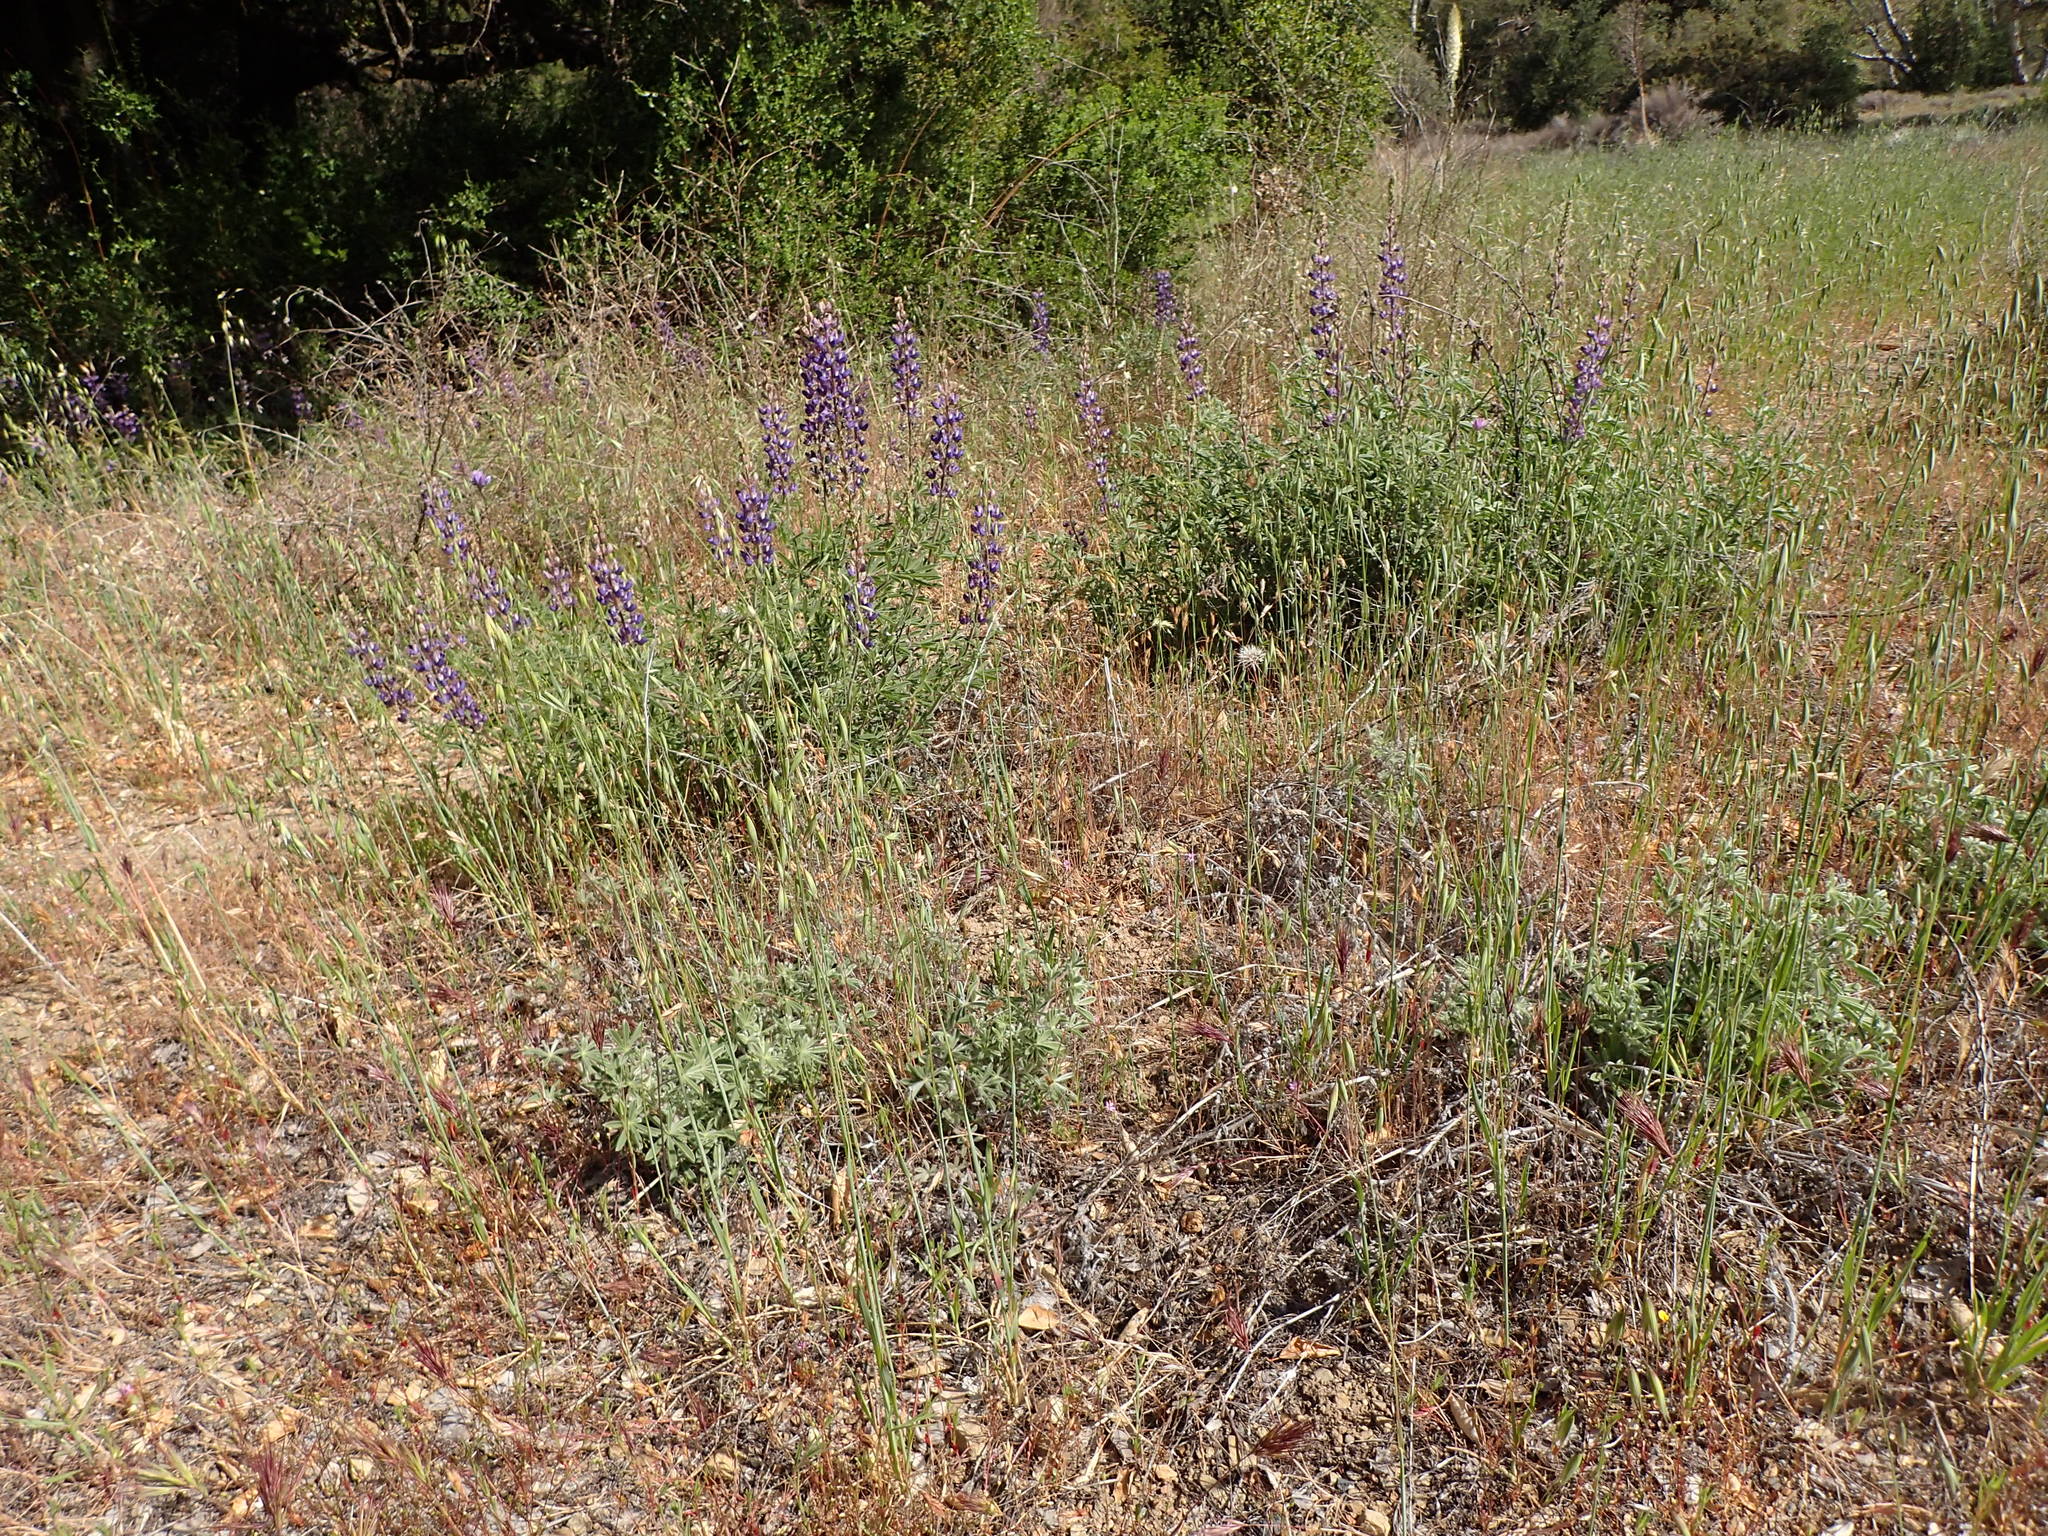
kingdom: Plantae
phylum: Tracheophyta
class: Magnoliopsida
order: Fabales
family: Fabaceae
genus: Lupinus
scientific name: Lupinus formosus
